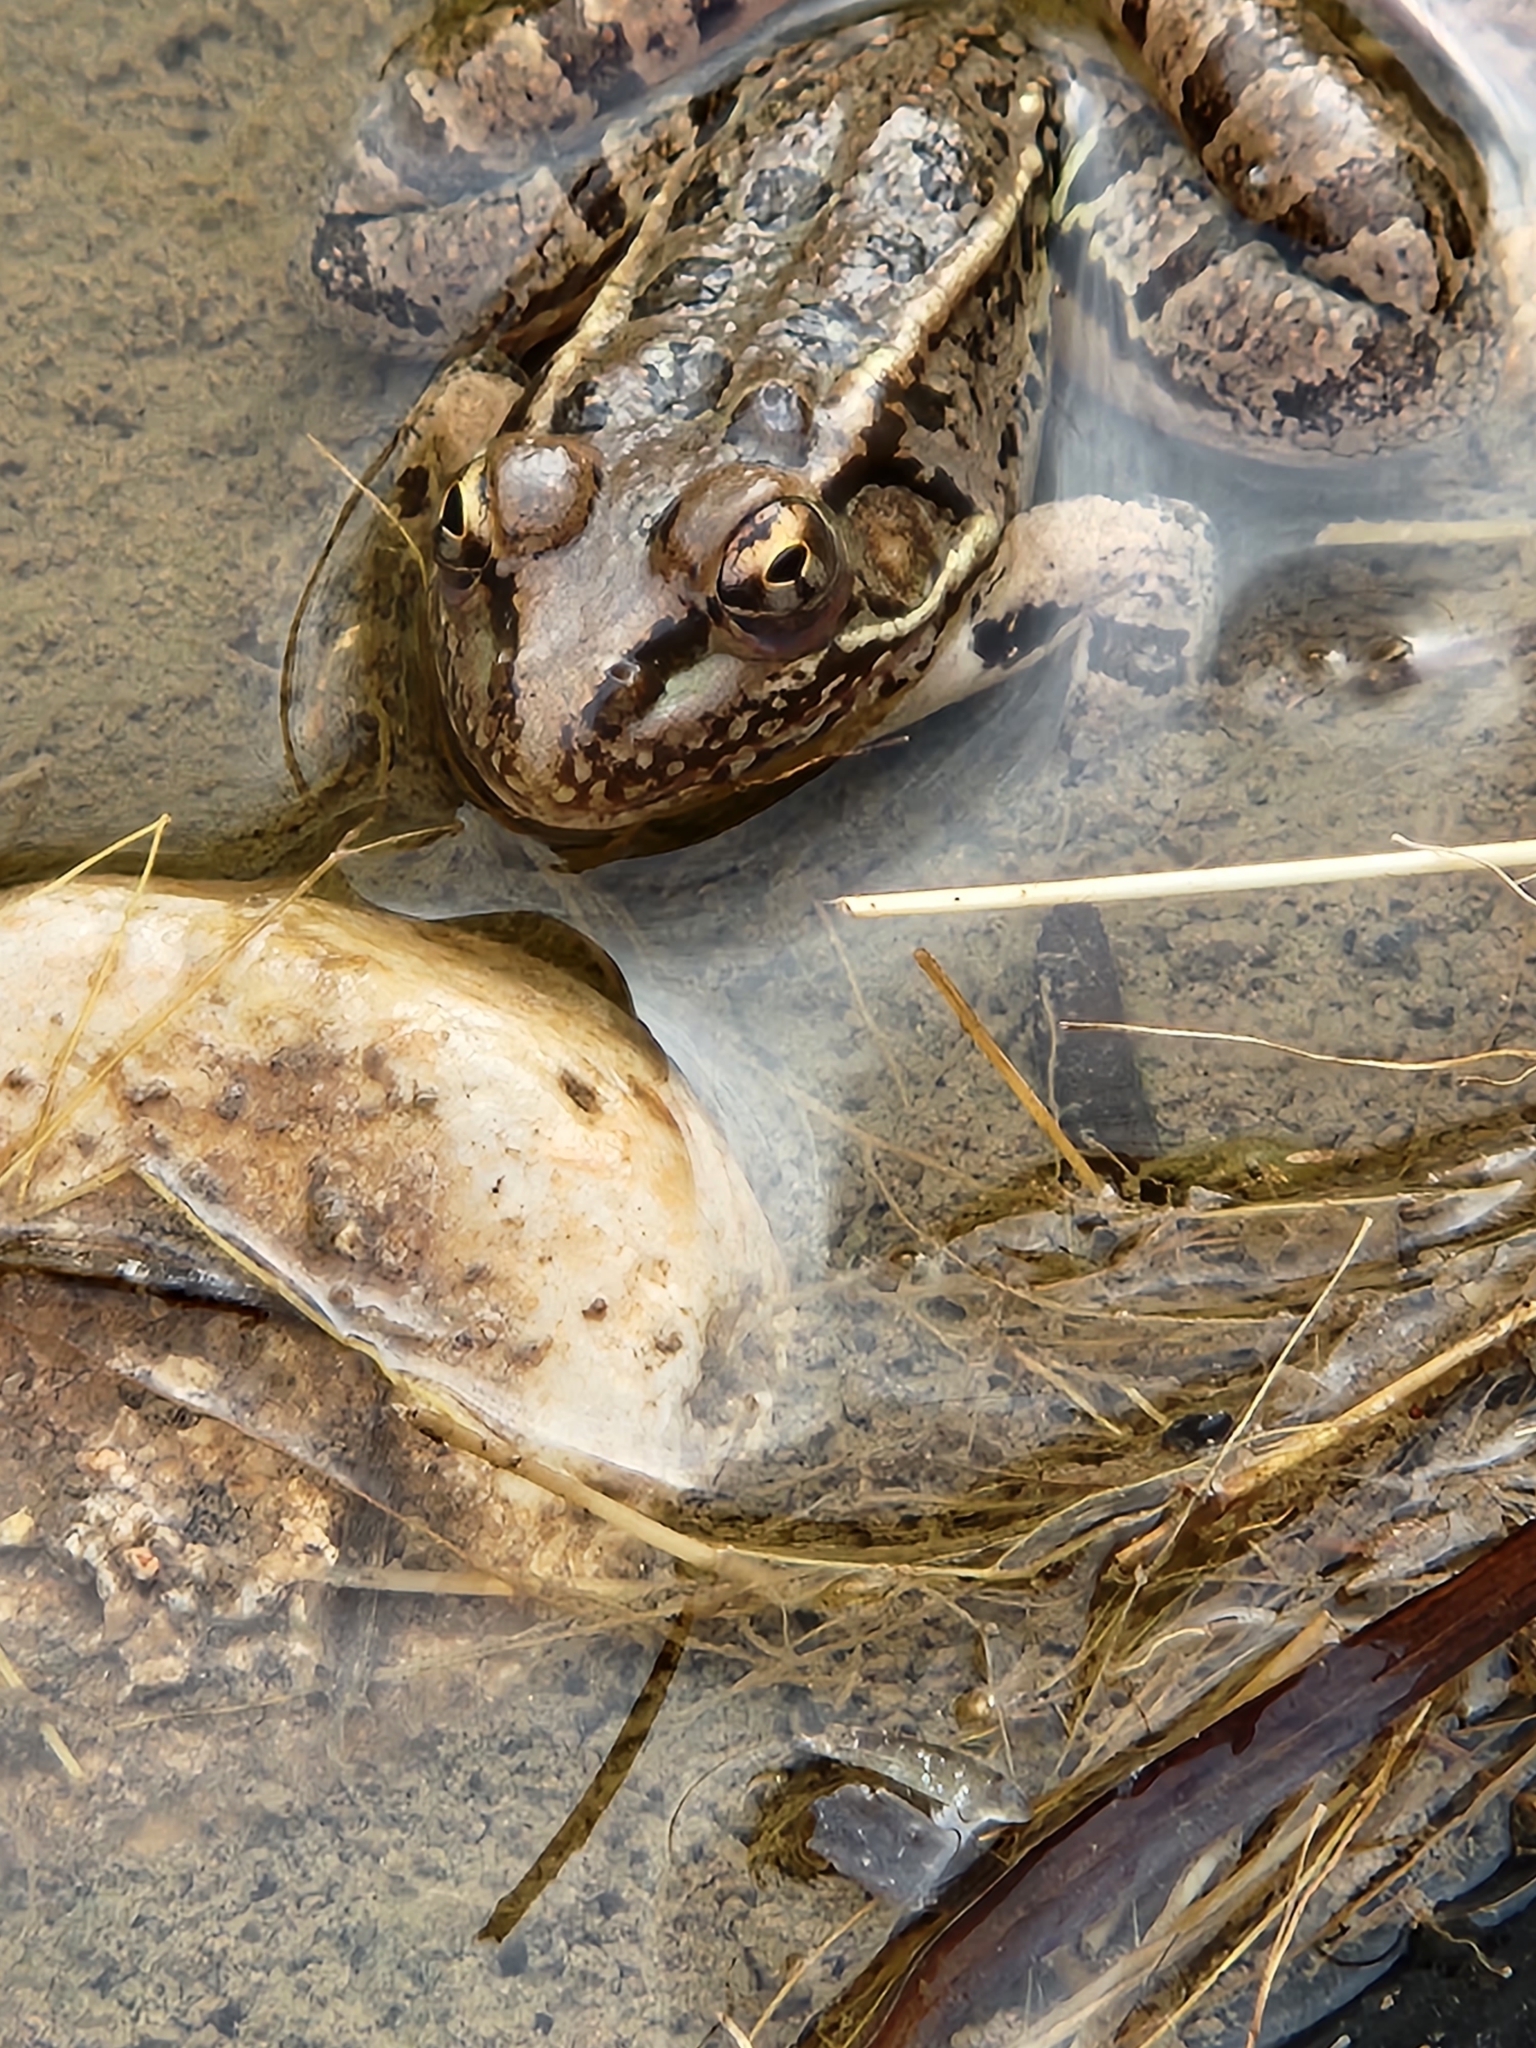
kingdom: Animalia
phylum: Chordata
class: Amphibia
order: Anura
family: Ranidae
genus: Lithobates
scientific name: Lithobates berlandieri
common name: Rio grande leopard frog
